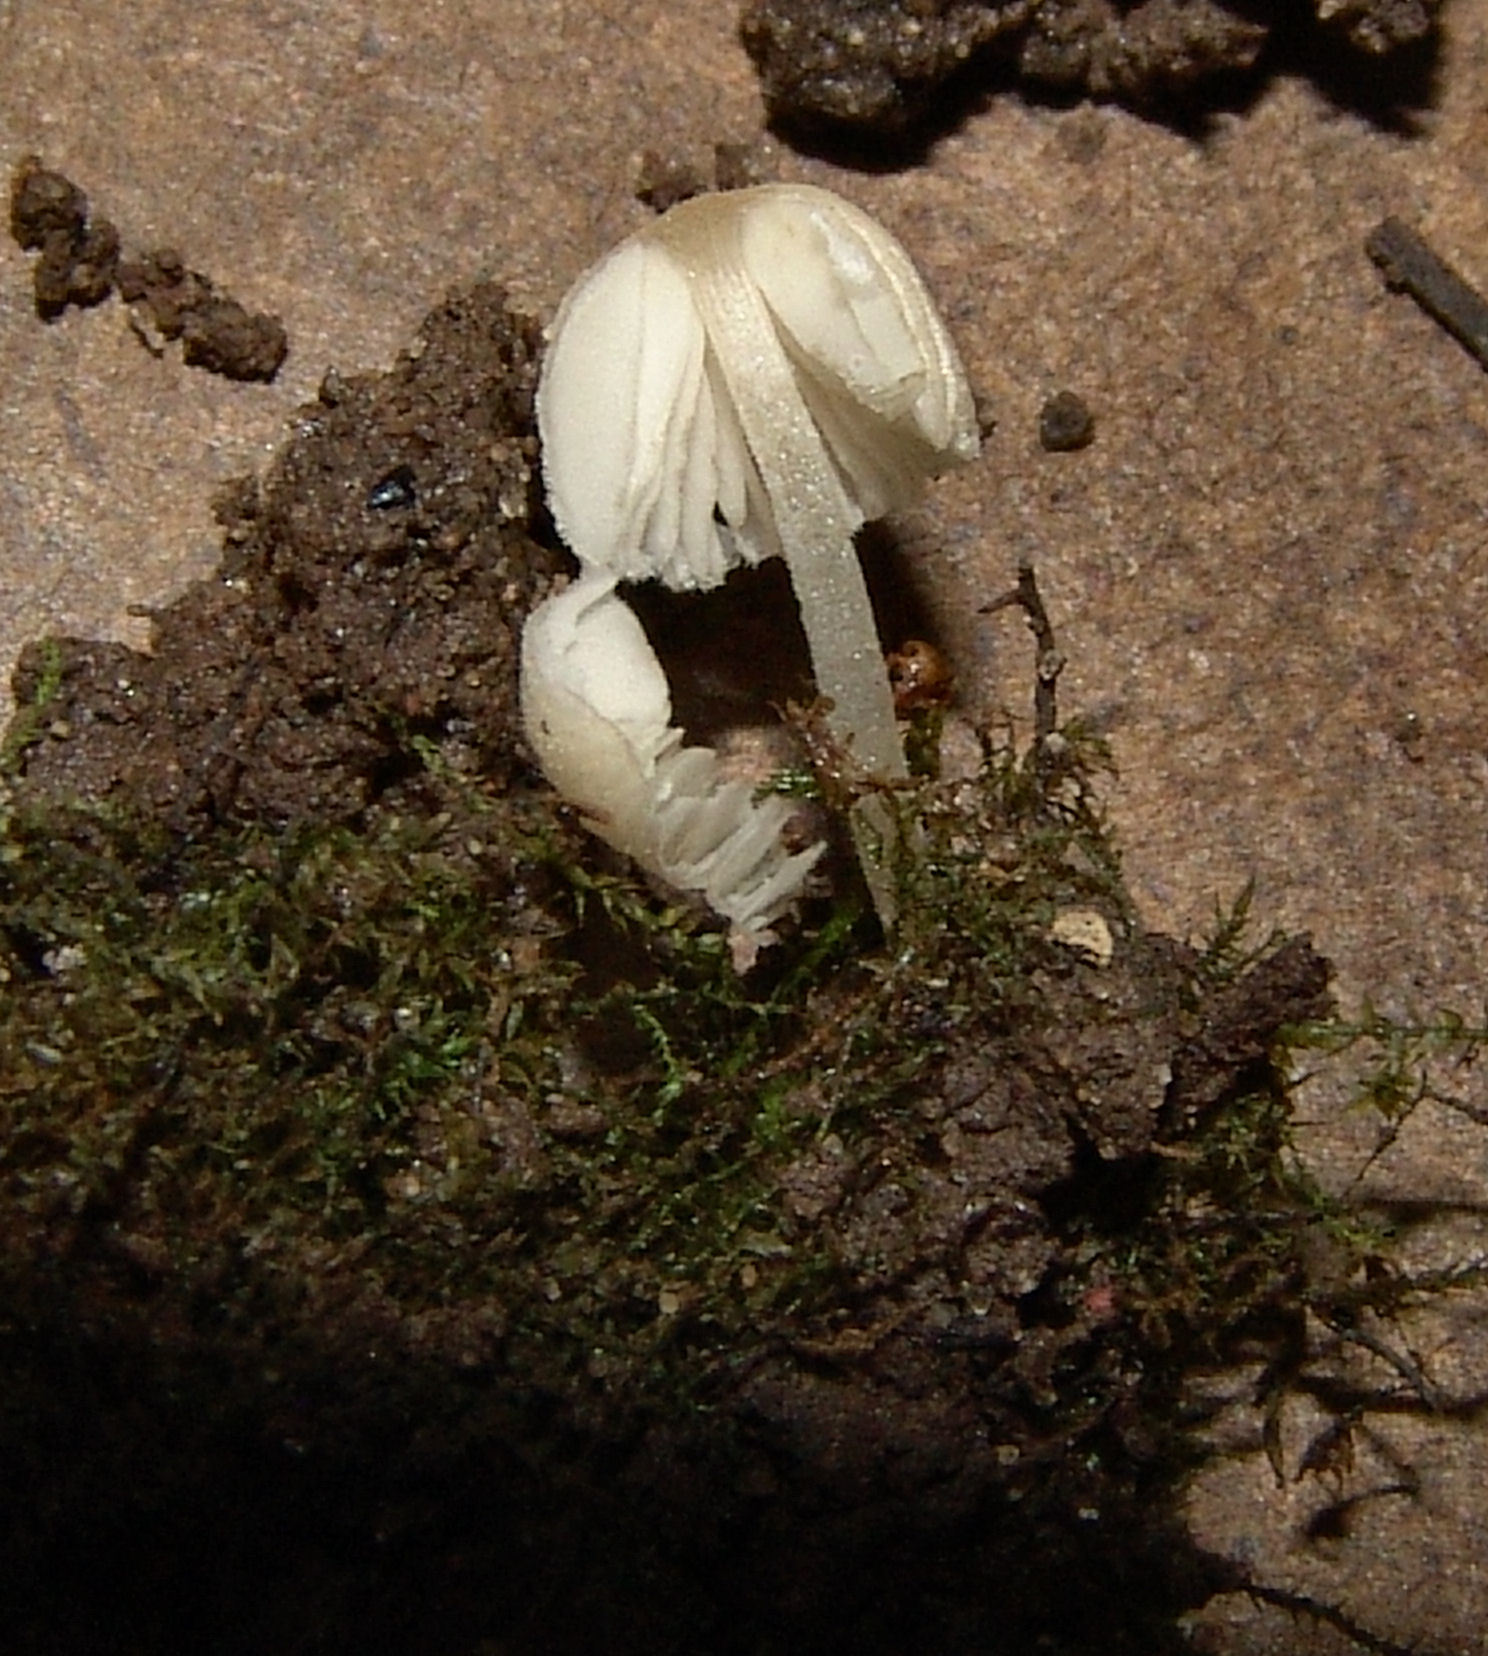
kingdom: Fungi
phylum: Basidiomycota
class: Agaricomycetes
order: Agaricales
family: Psathyrellaceae
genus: Coprinellus
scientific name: Coprinellus disseminatus
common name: Fairies' bonnets
